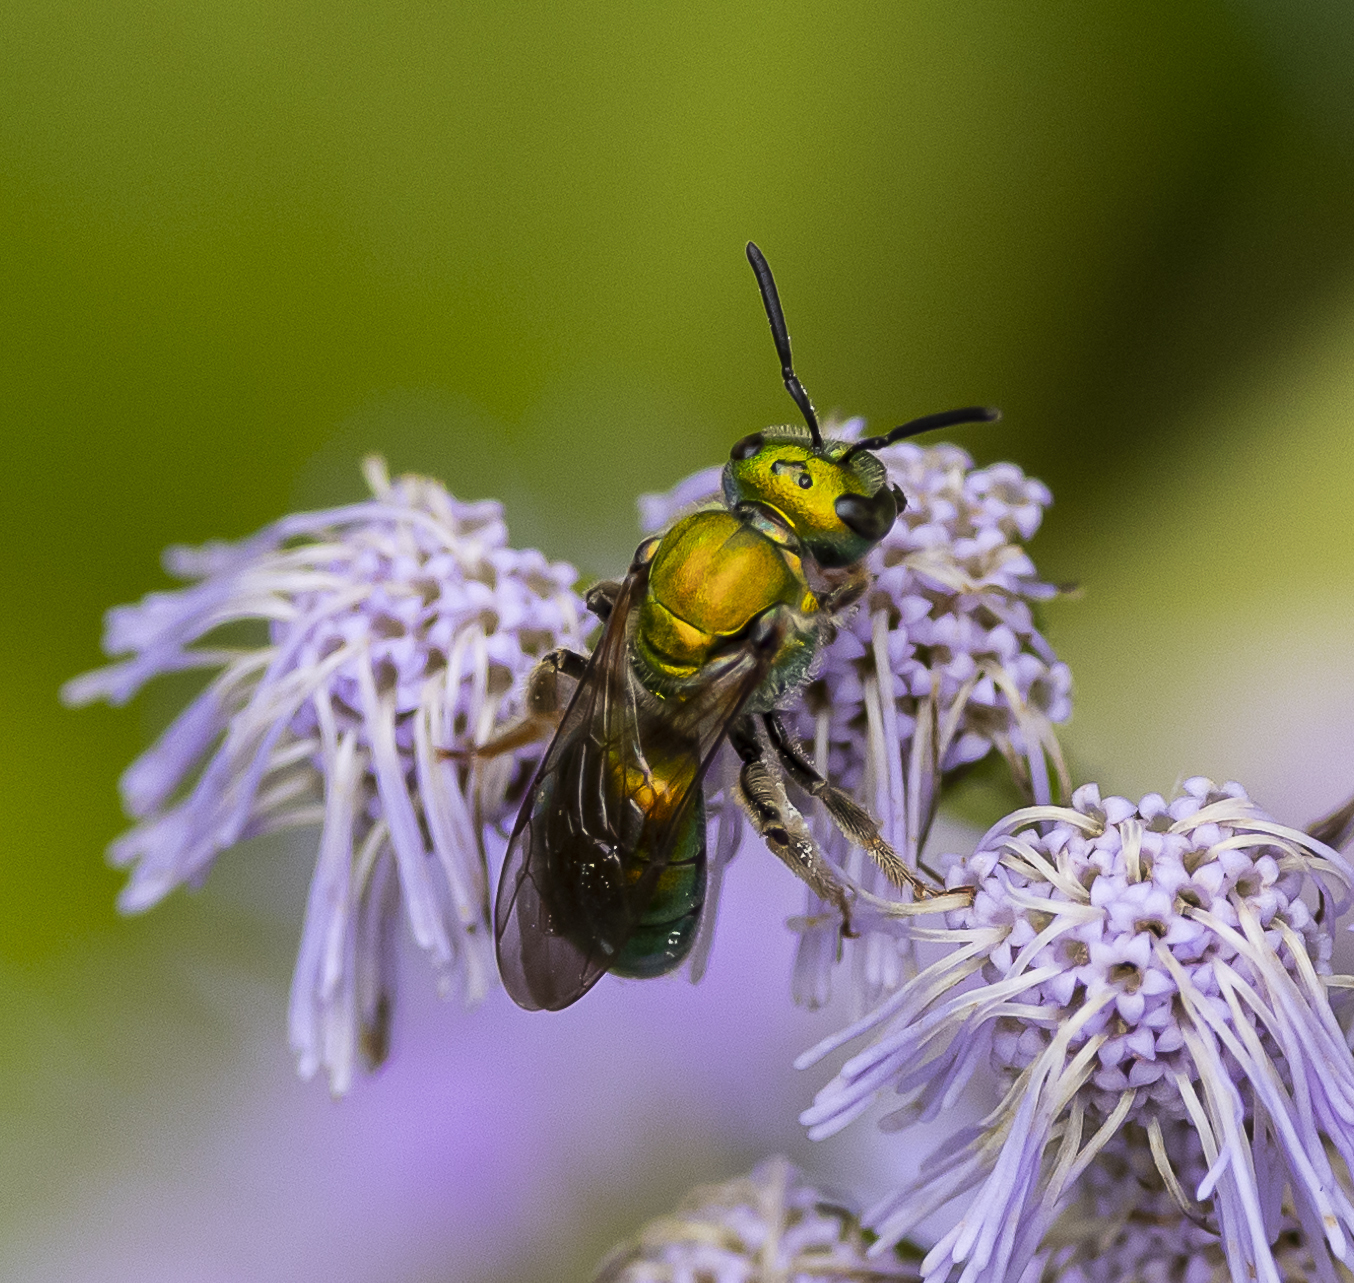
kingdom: Animalia
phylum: Arthropoda
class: Insecta
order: Hymenoptera
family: Halictidae
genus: Augochlora
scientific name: Augochlora pura
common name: Pure green sweat bee
